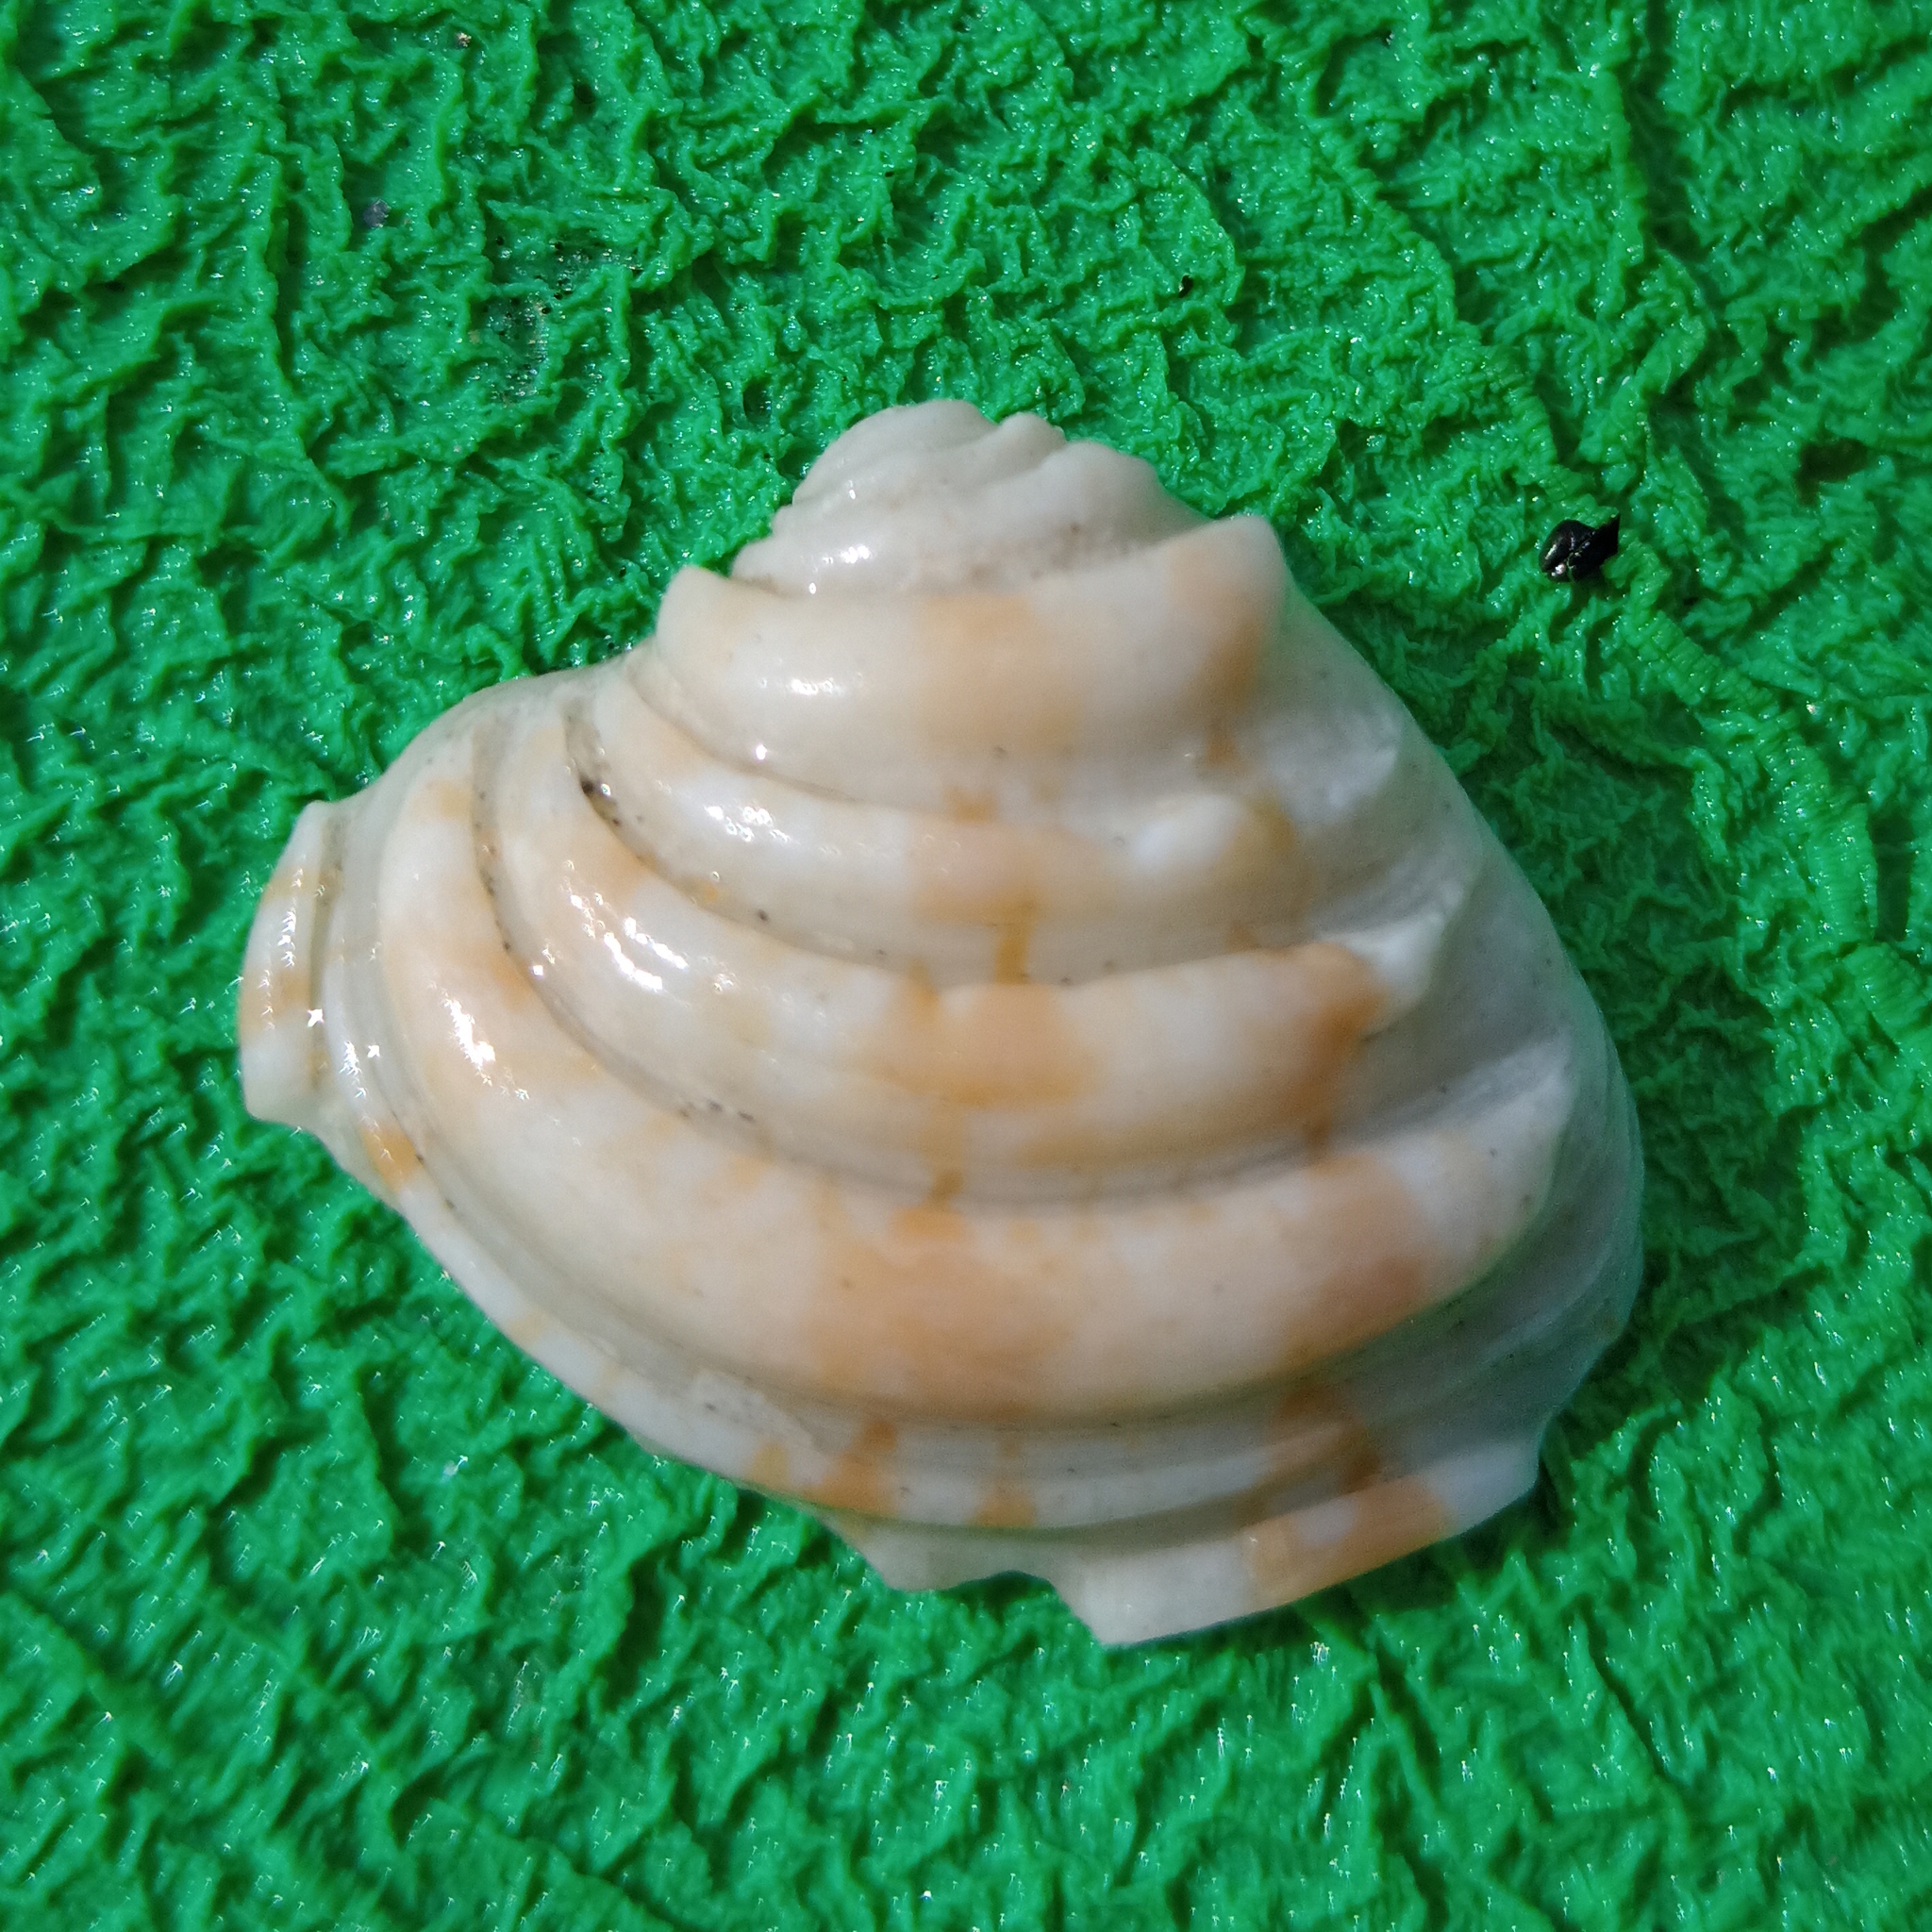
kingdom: Animalia
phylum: Mollusca
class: Bivalvia
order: Venerida
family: Veneridae
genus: Lirophora
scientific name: Lirophora paphia
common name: King venus
